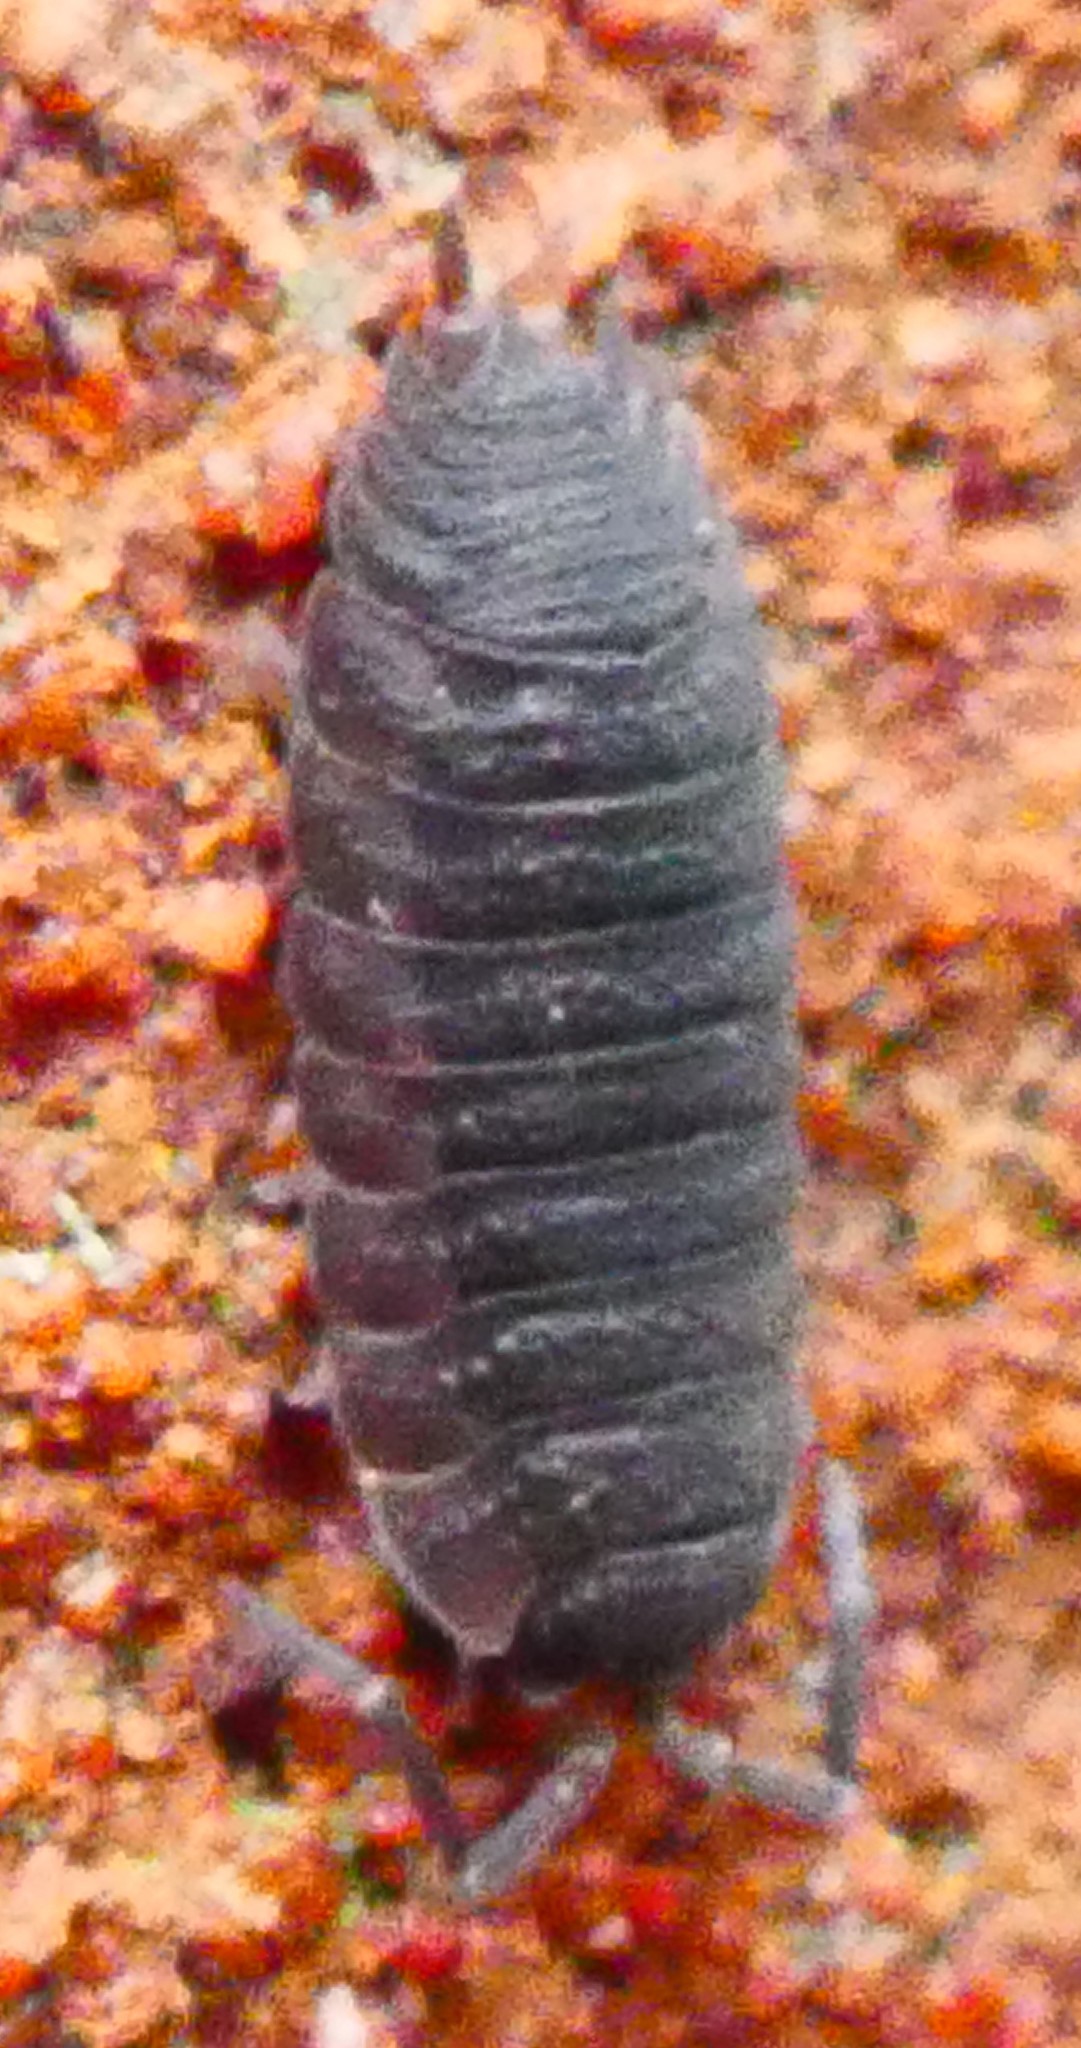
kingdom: Animalia
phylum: Arthropoda
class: Malacostraca
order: Isopoda
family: Porcellionidae
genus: Porcellio
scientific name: Porcellio scaber
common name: Common rough woodlouse
